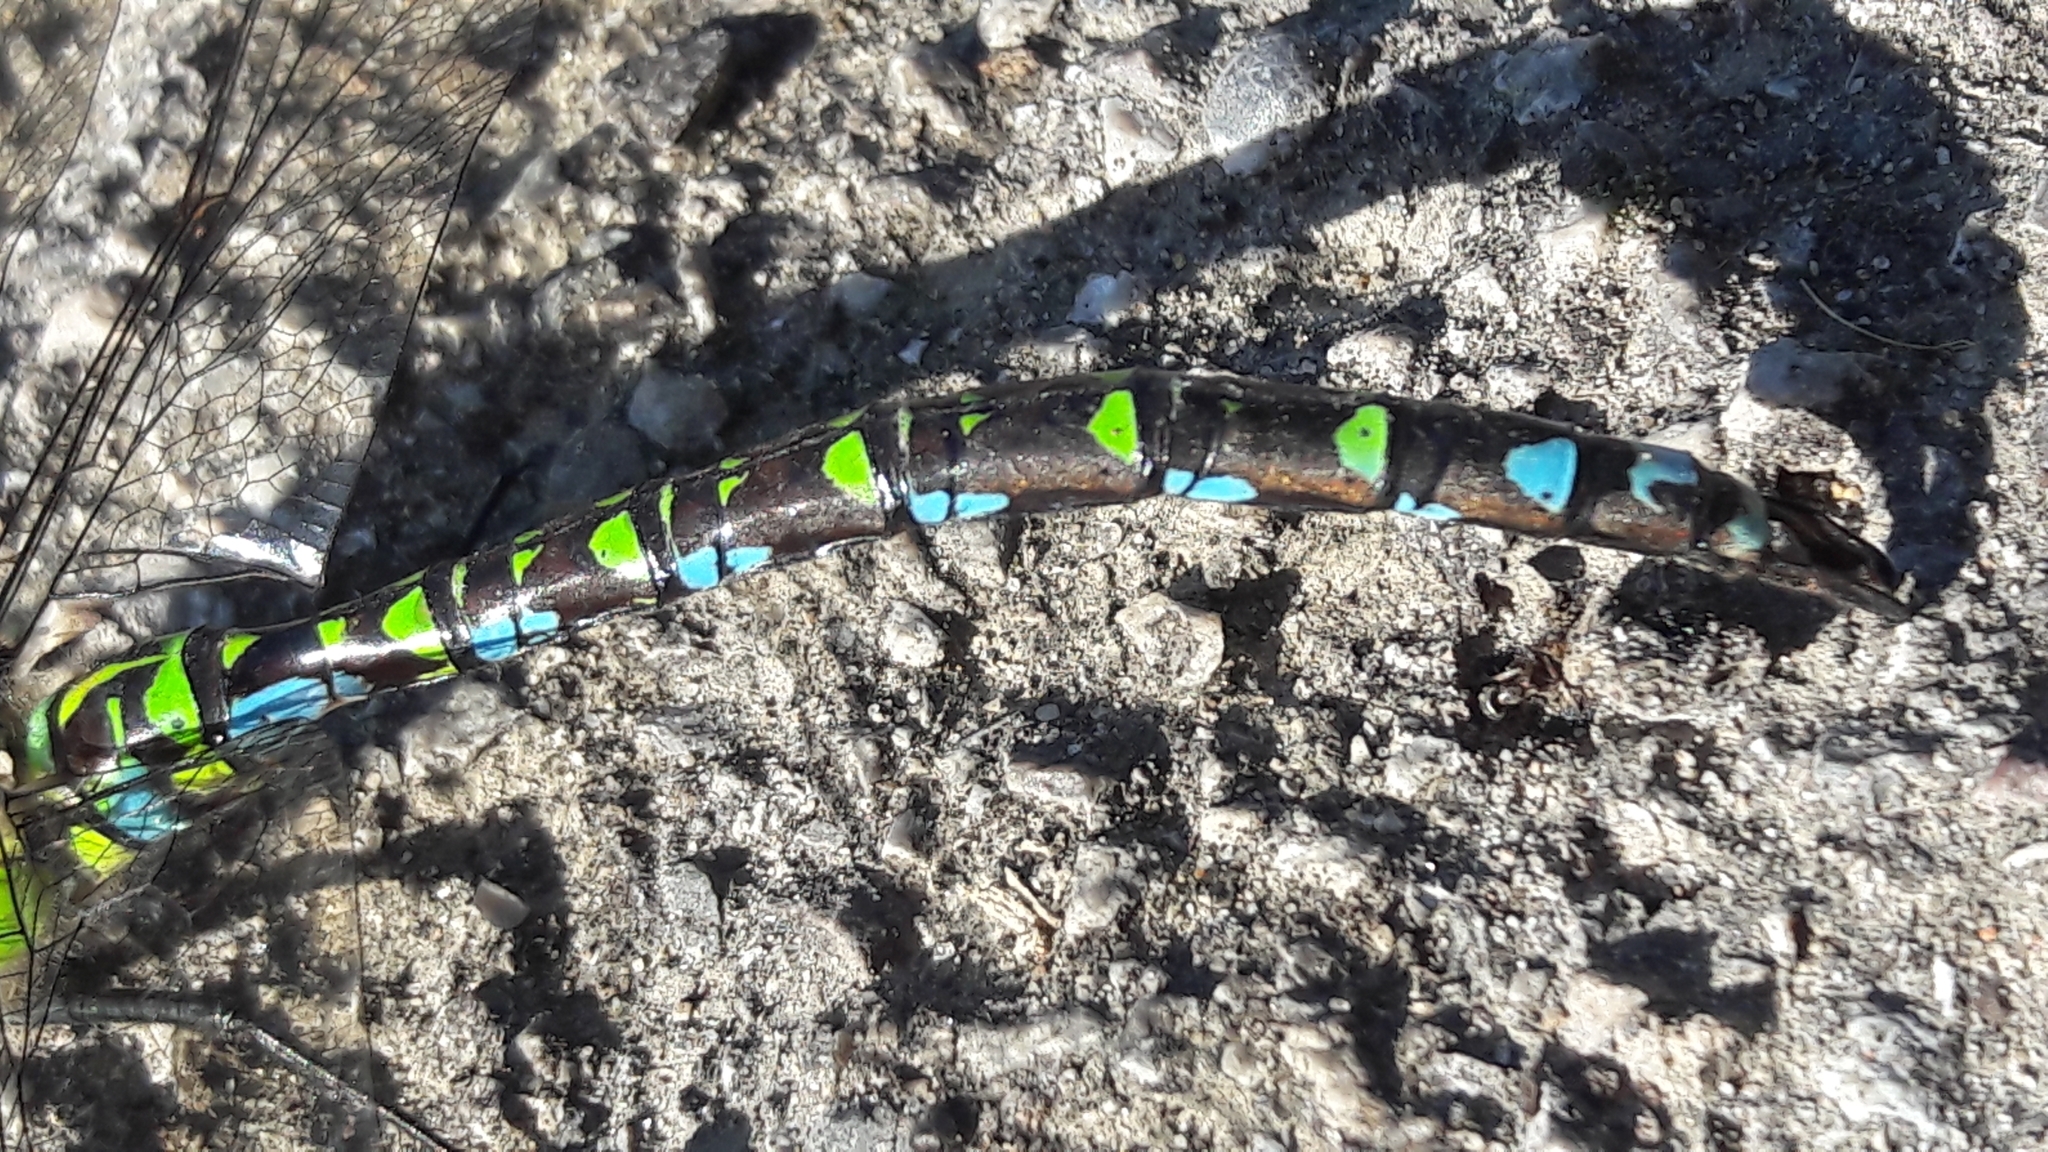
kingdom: Animalia
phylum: Arthropoda
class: Insecta
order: Odonata
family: Aeshnidae
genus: Aeshna
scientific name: Aeshna cyanea
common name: Southern hawker
